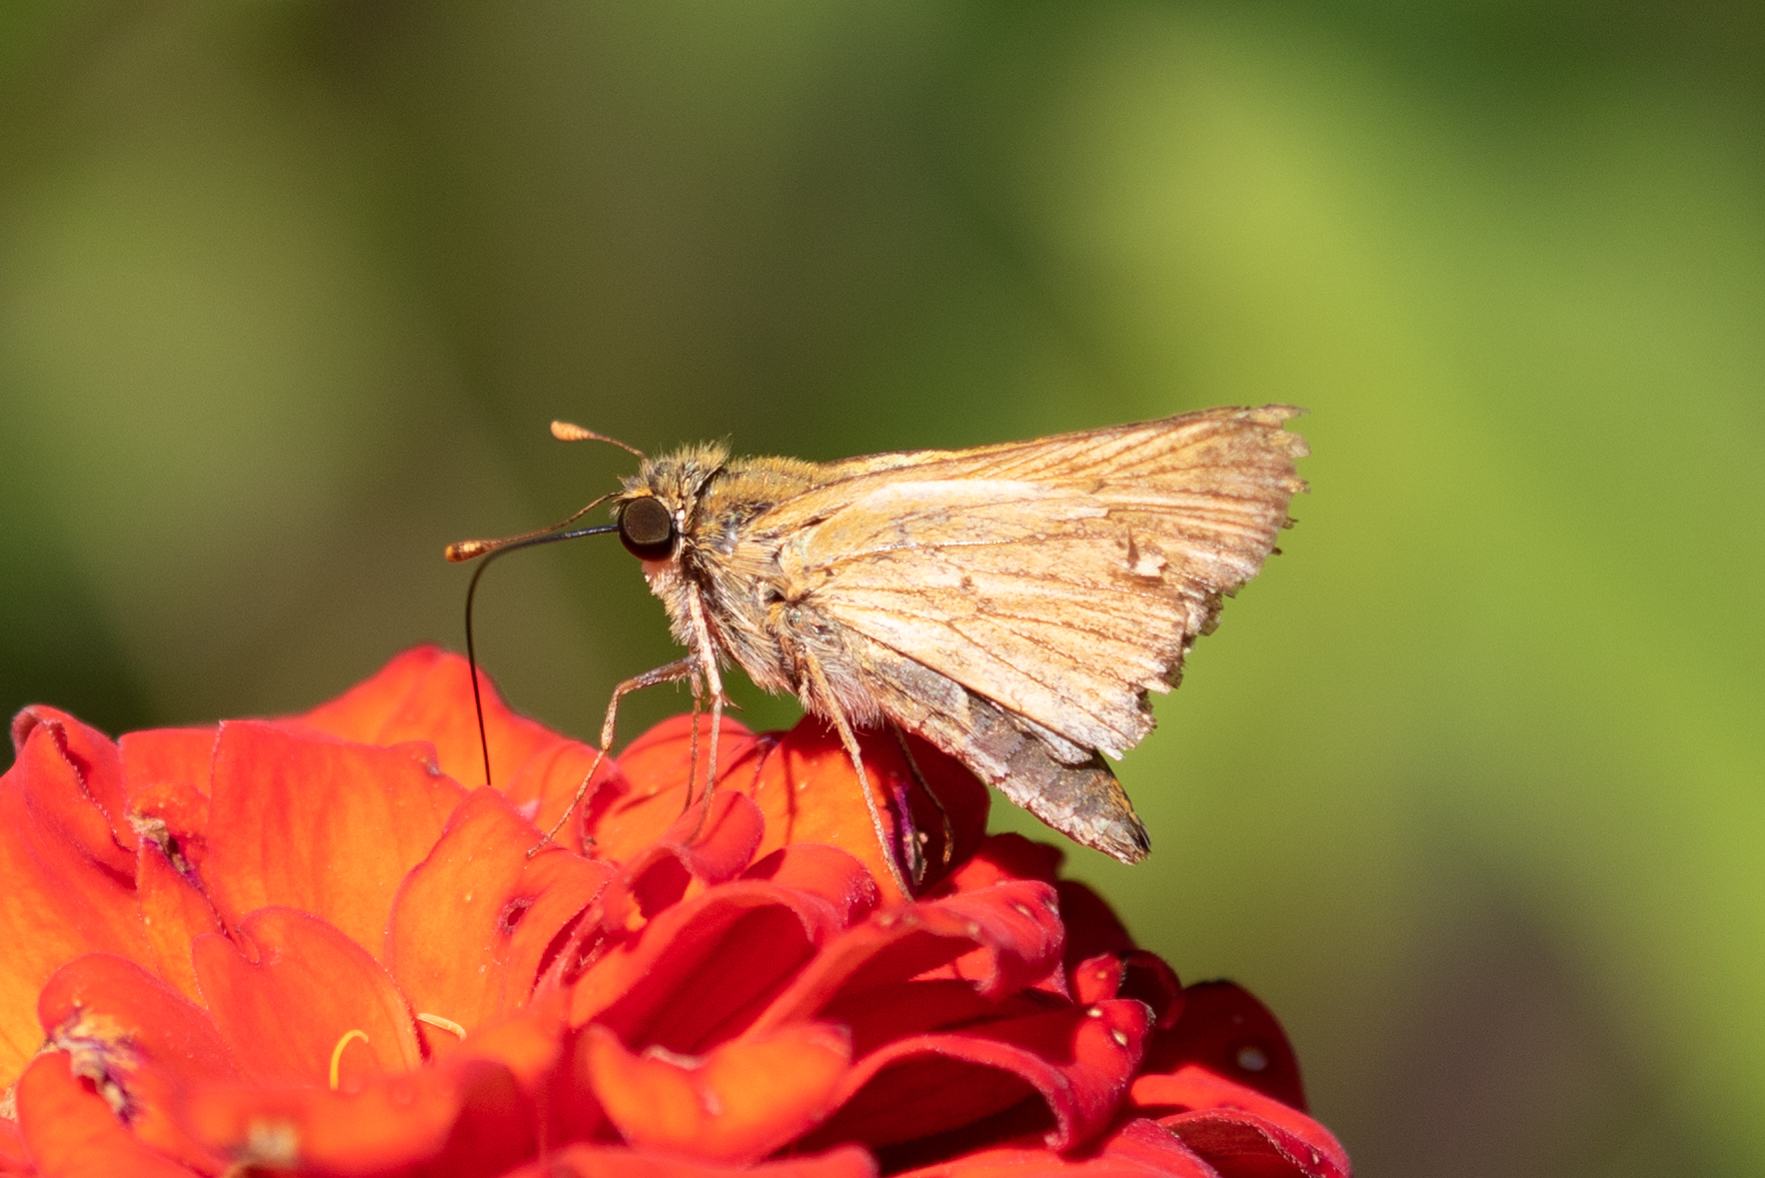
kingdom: Animalia
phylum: Arthropoda
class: Insecta
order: Lepidoptera
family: Hesperiidae
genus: Hylephila
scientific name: Hylephila phyleus
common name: Fiery skipper
